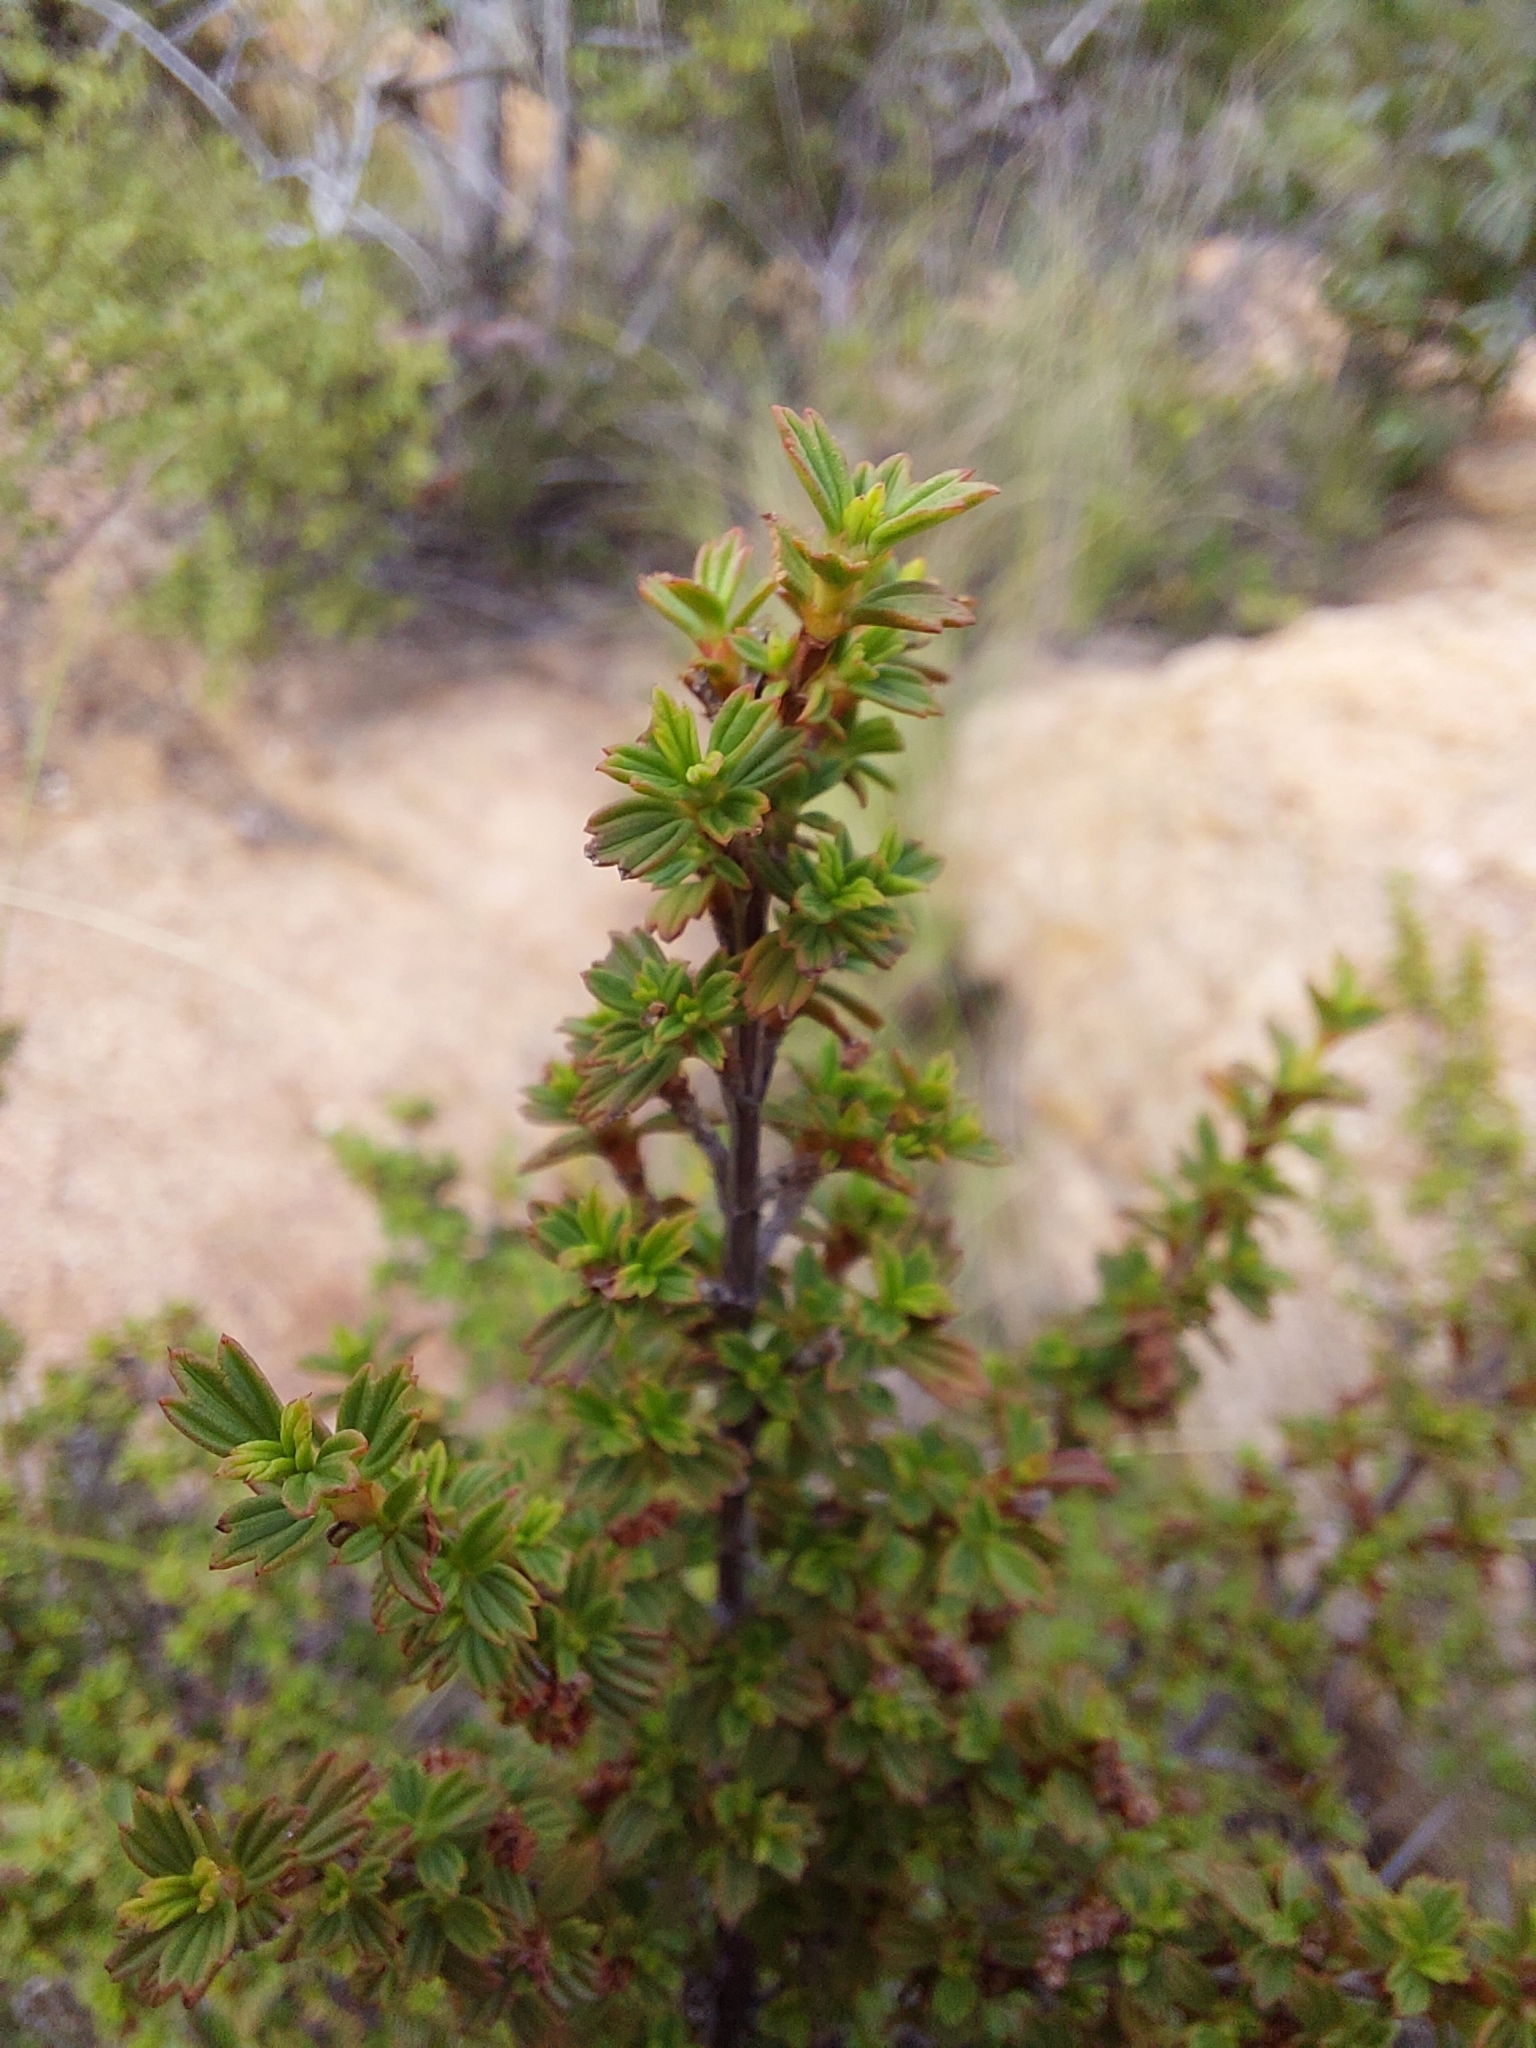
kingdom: Plantae
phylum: Tracheophyta
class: Magnoliopsida
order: Gunnerales
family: Myrothamnaceae
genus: Myrothamnus
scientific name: Myrothamnus flabellifolius
